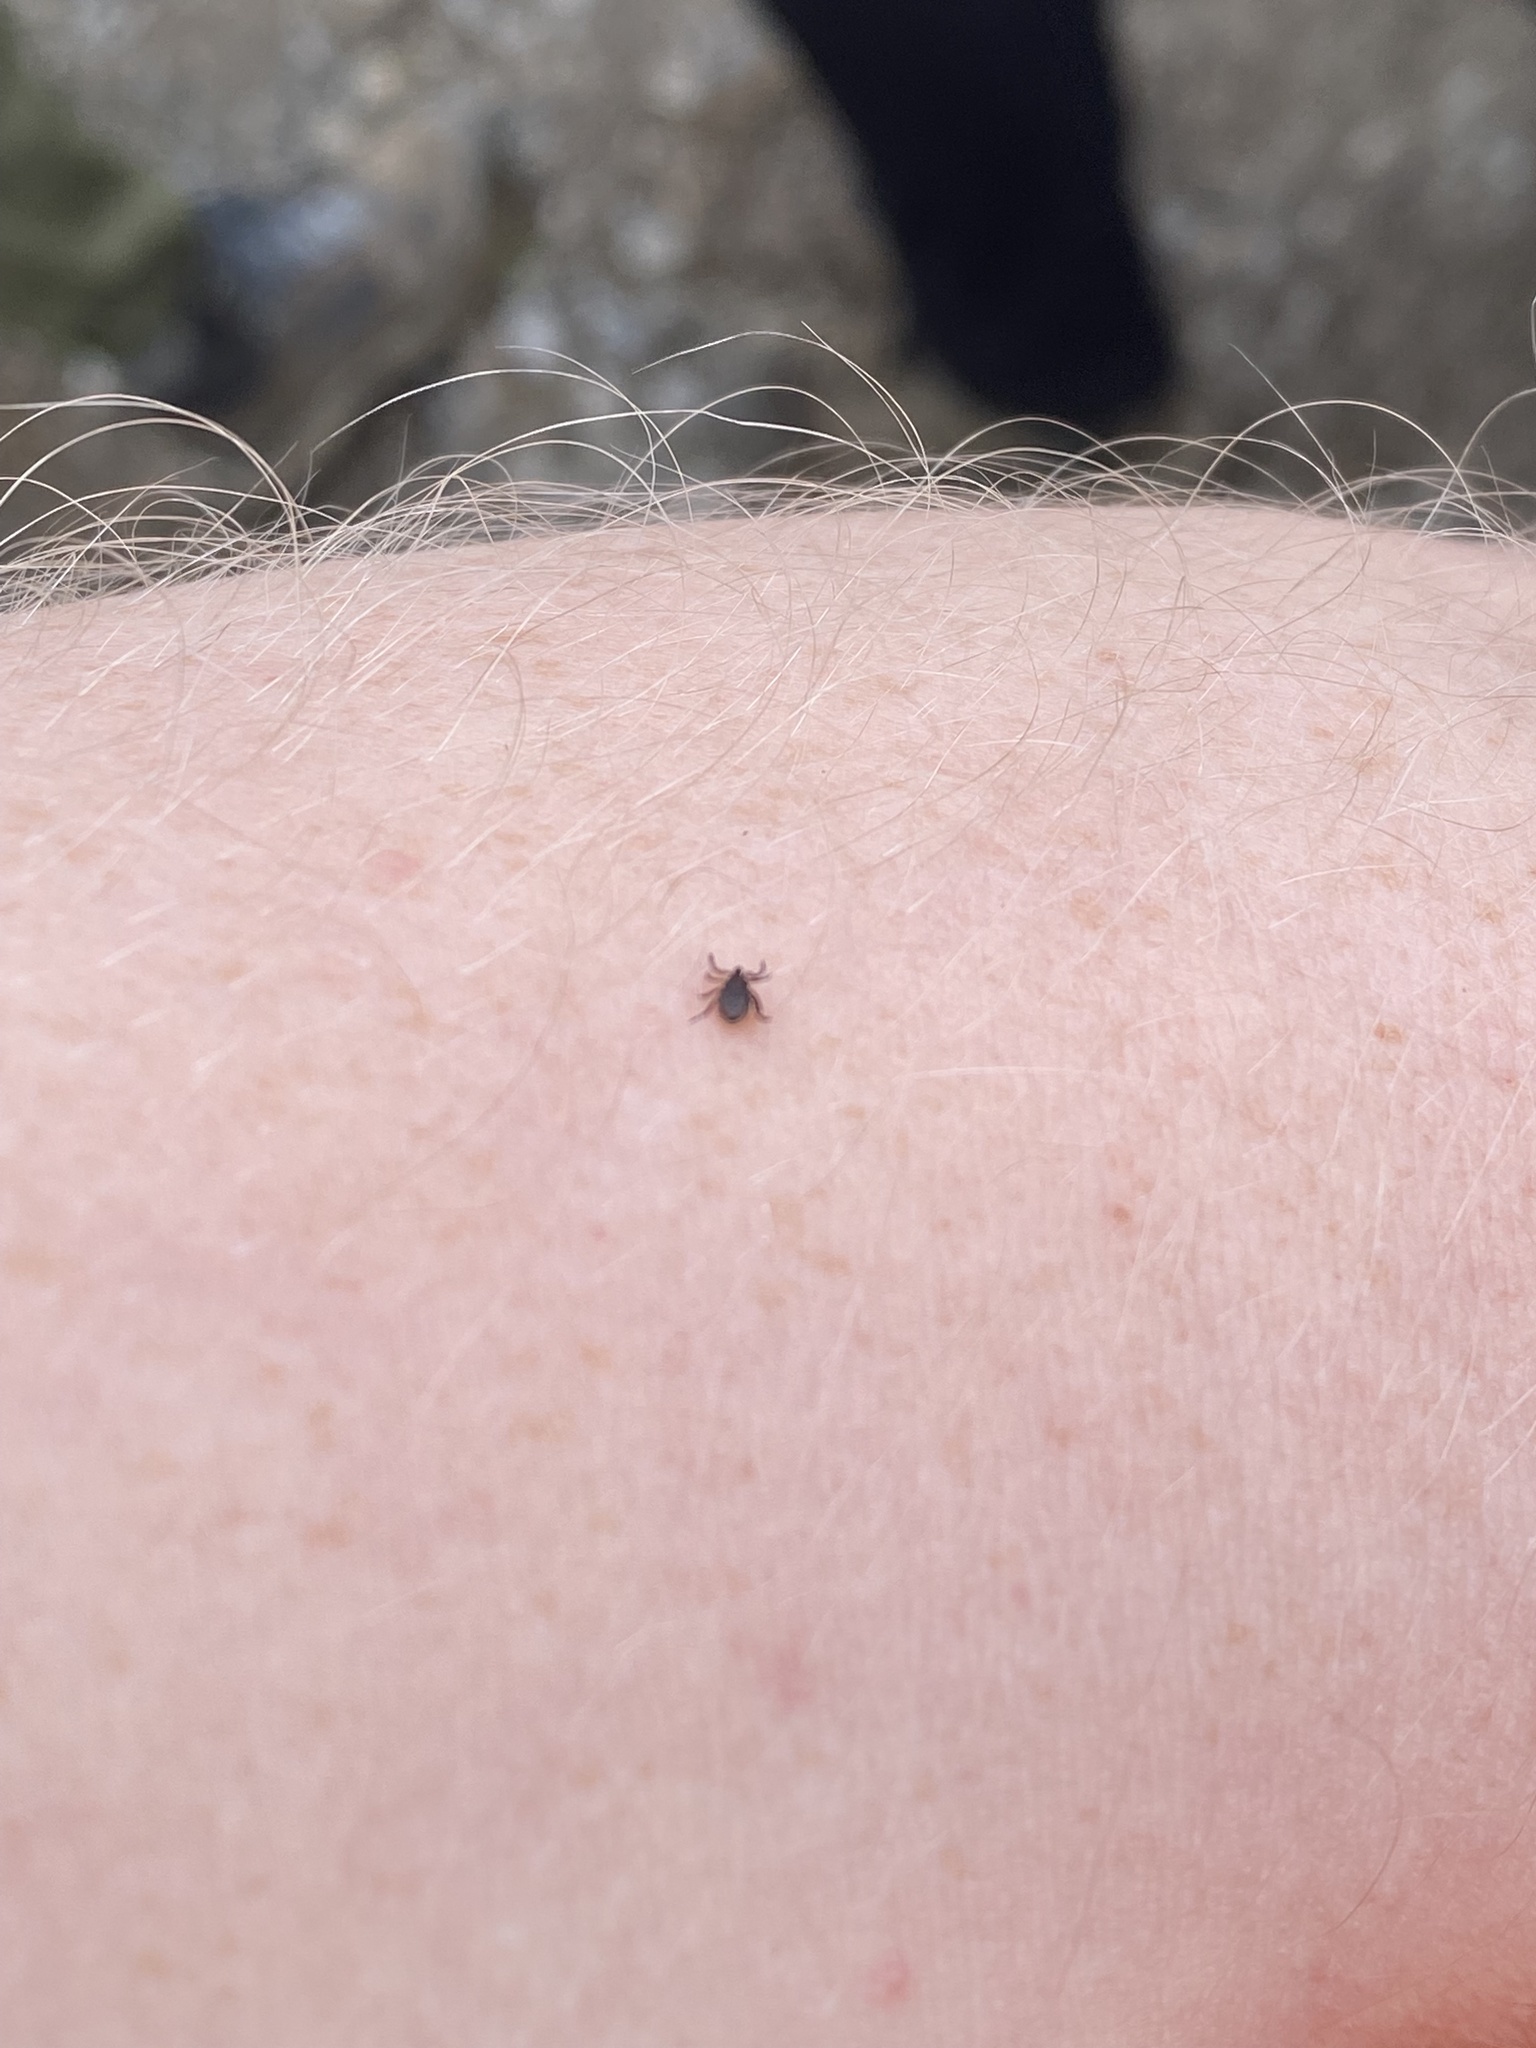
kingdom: Animalia
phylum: Arthropoda
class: Arachnida
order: Ixodida
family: Ixodidae
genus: Ixodes
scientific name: Ixodes scapularis
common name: Black legged tick
